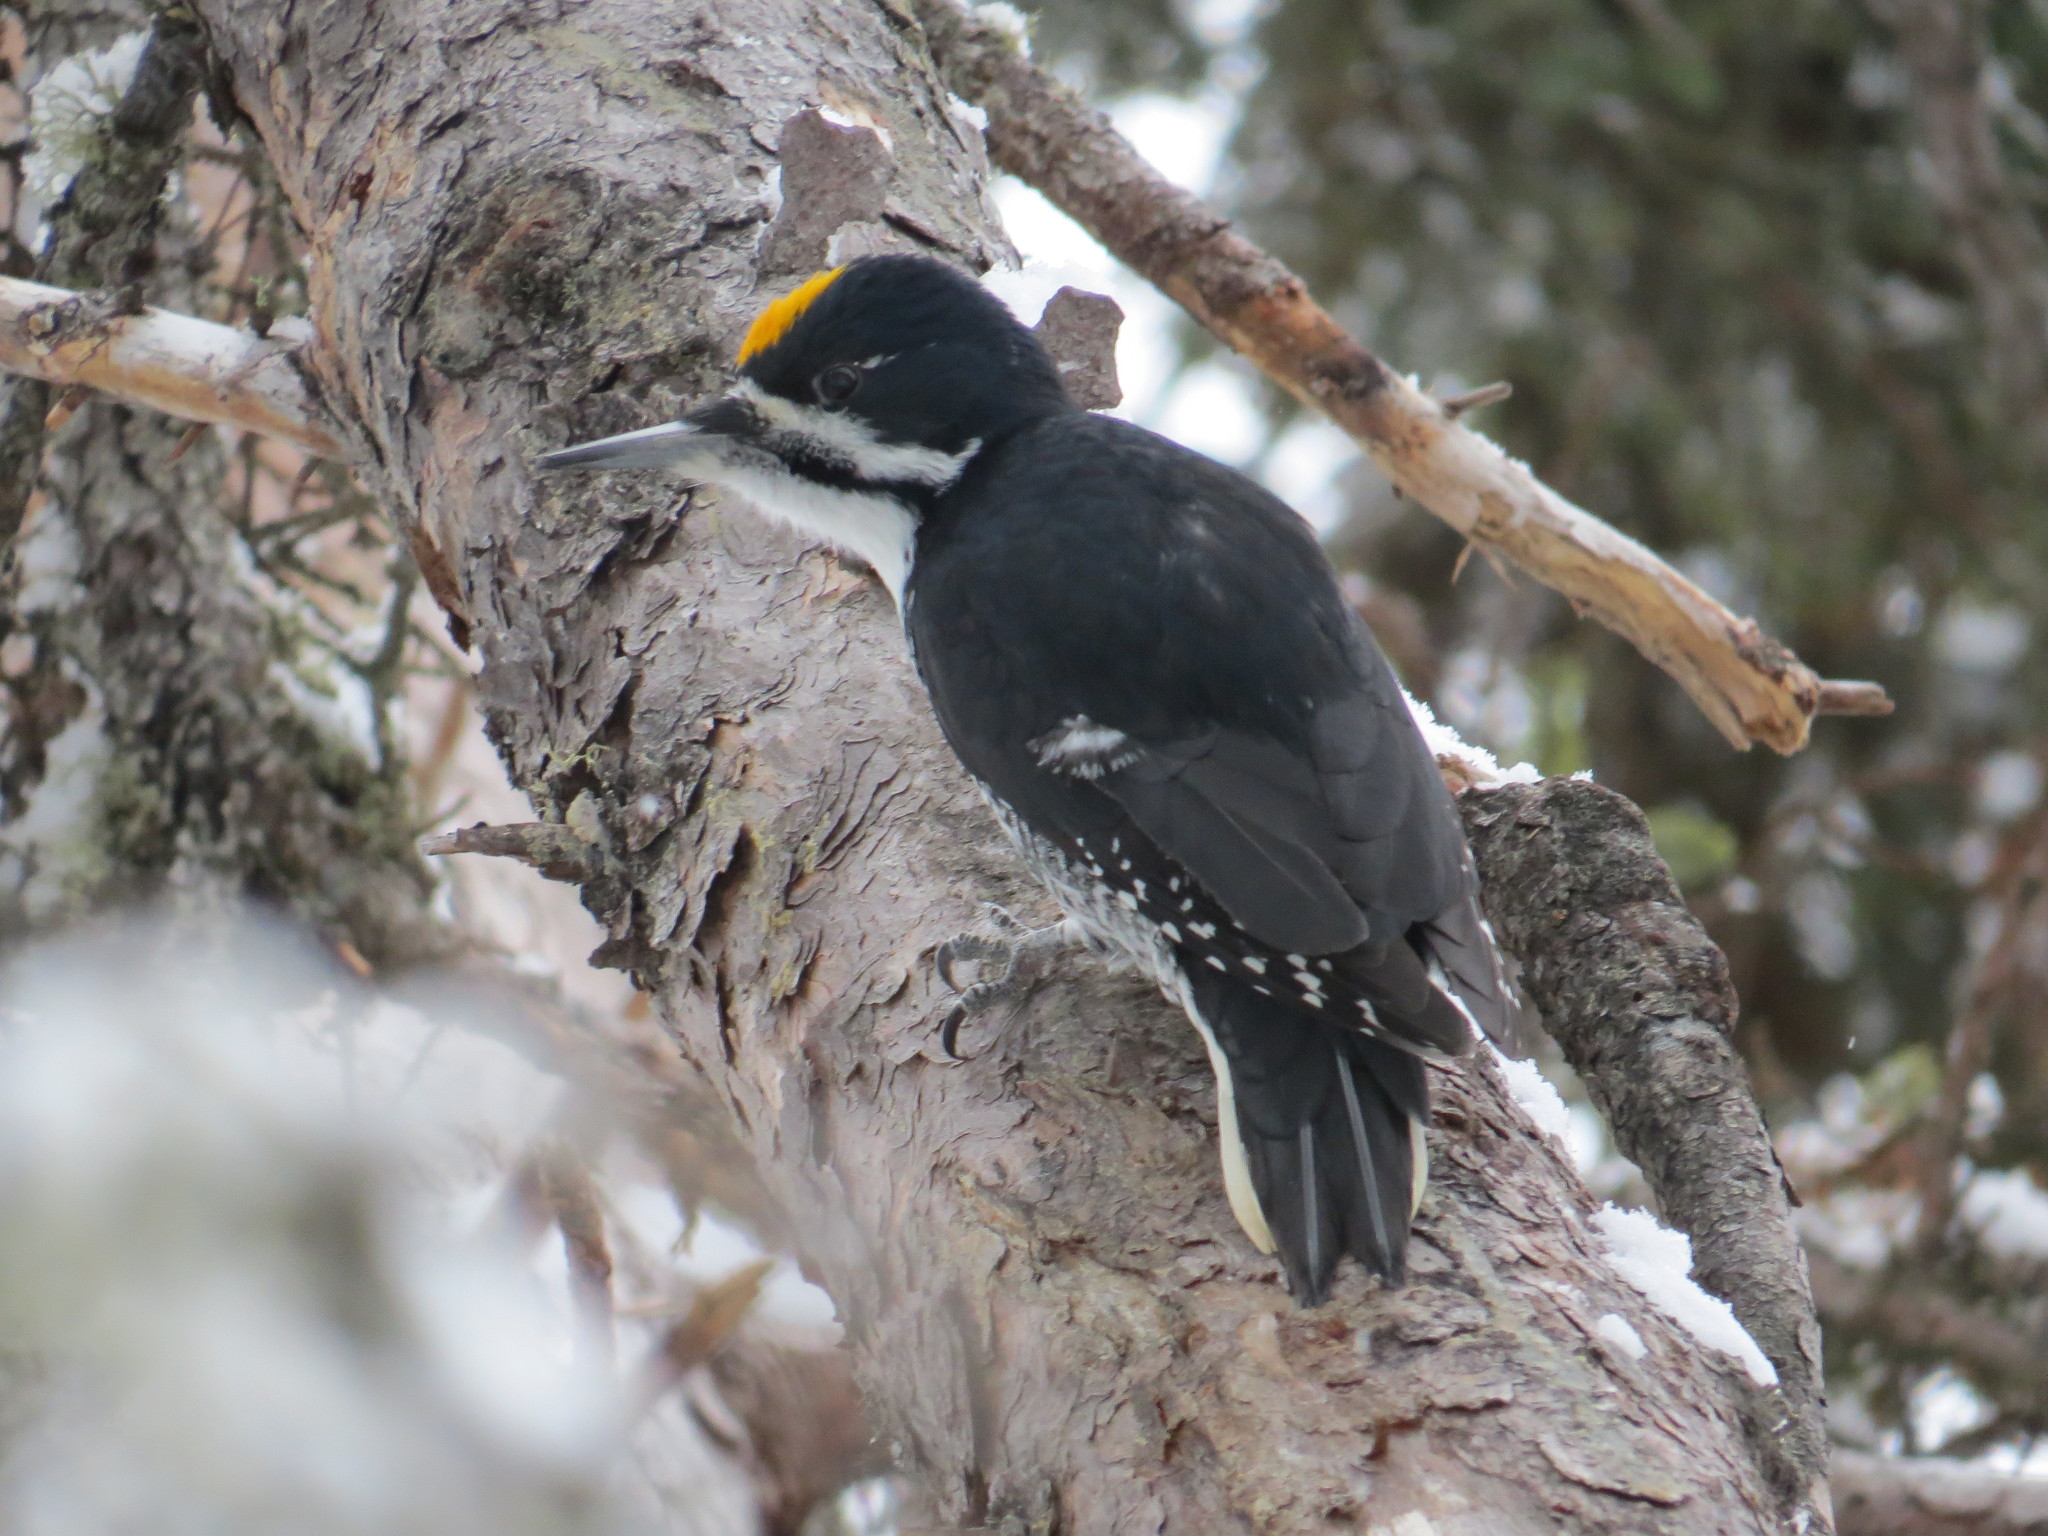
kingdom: Animalia
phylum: Chordata
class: Aves
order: Piciformes
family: Picidae
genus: Picoides
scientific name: Picoides arcticus
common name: Black-backed woodpecker
